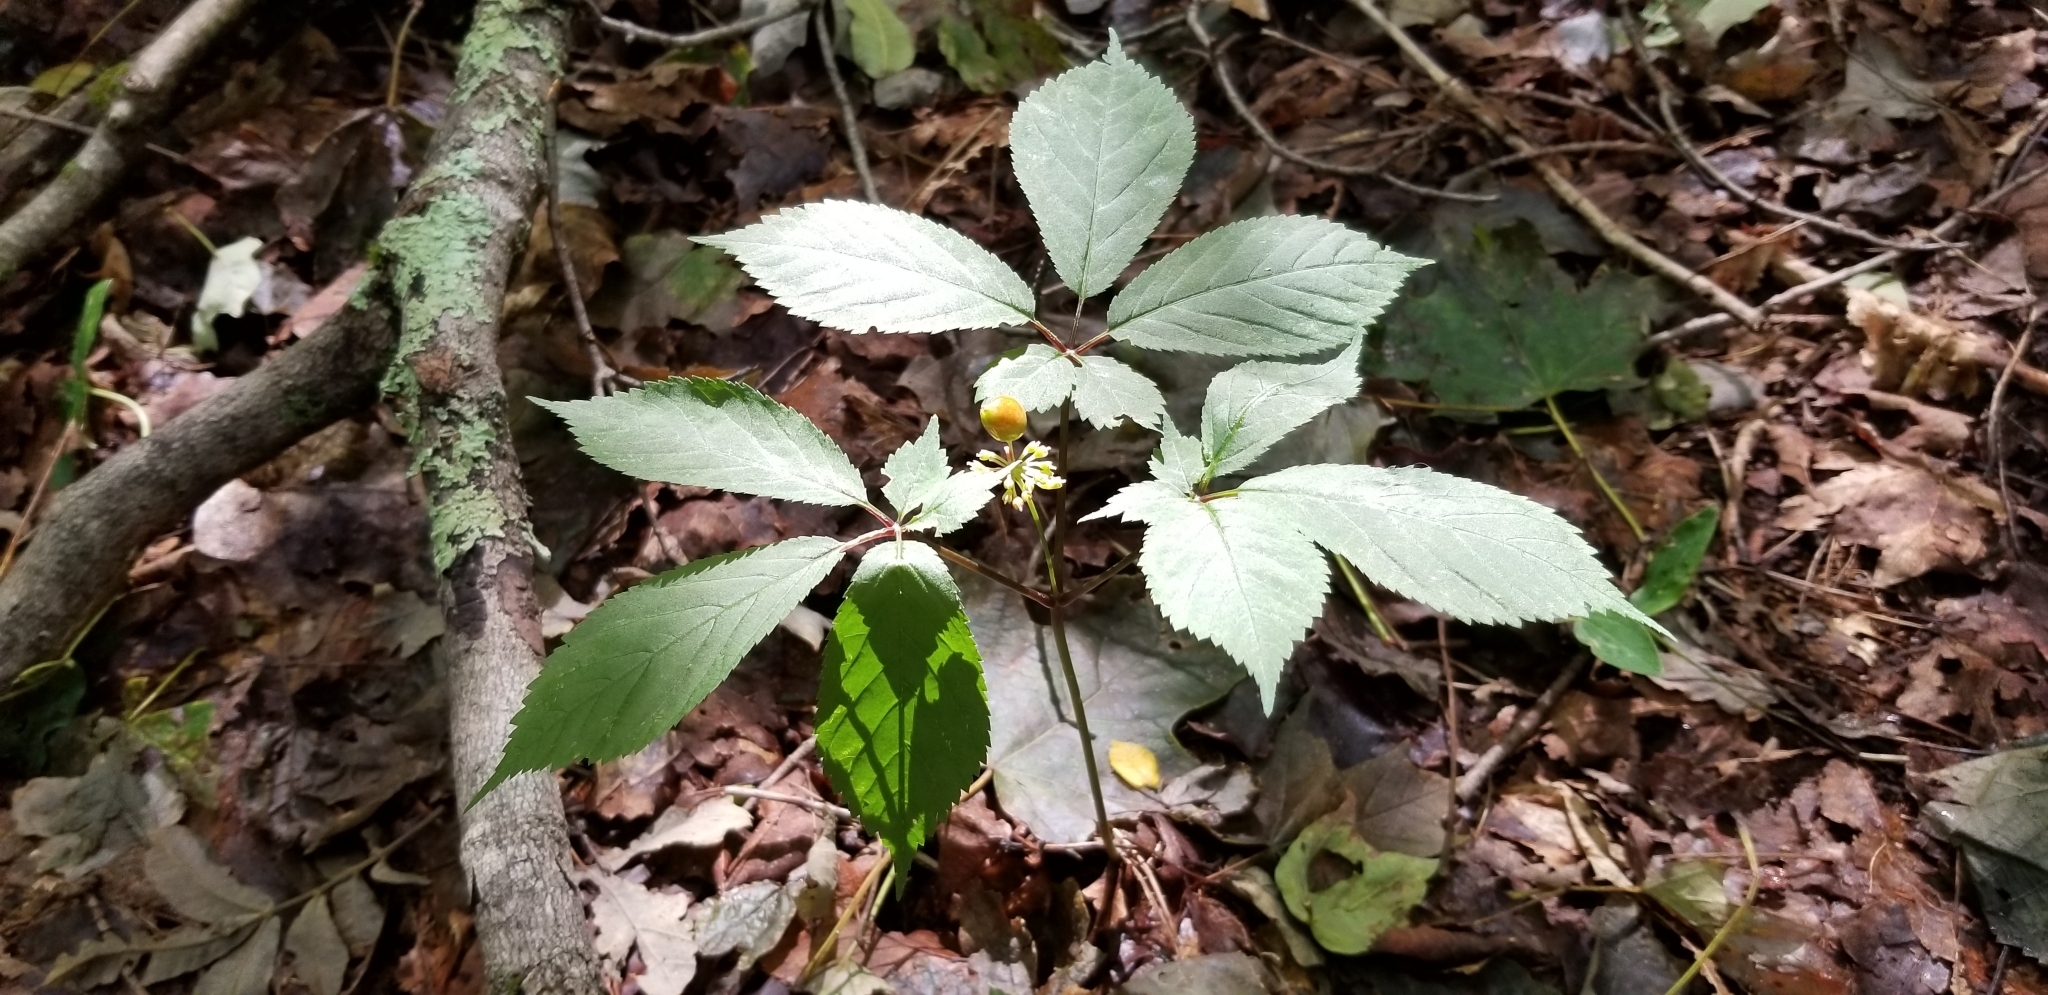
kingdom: Plantae
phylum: Tracheophyta
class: Magnoliopsida
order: Apiales
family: Araliaceae
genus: Panax
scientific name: Panax quinquefolius
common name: American ginseng
